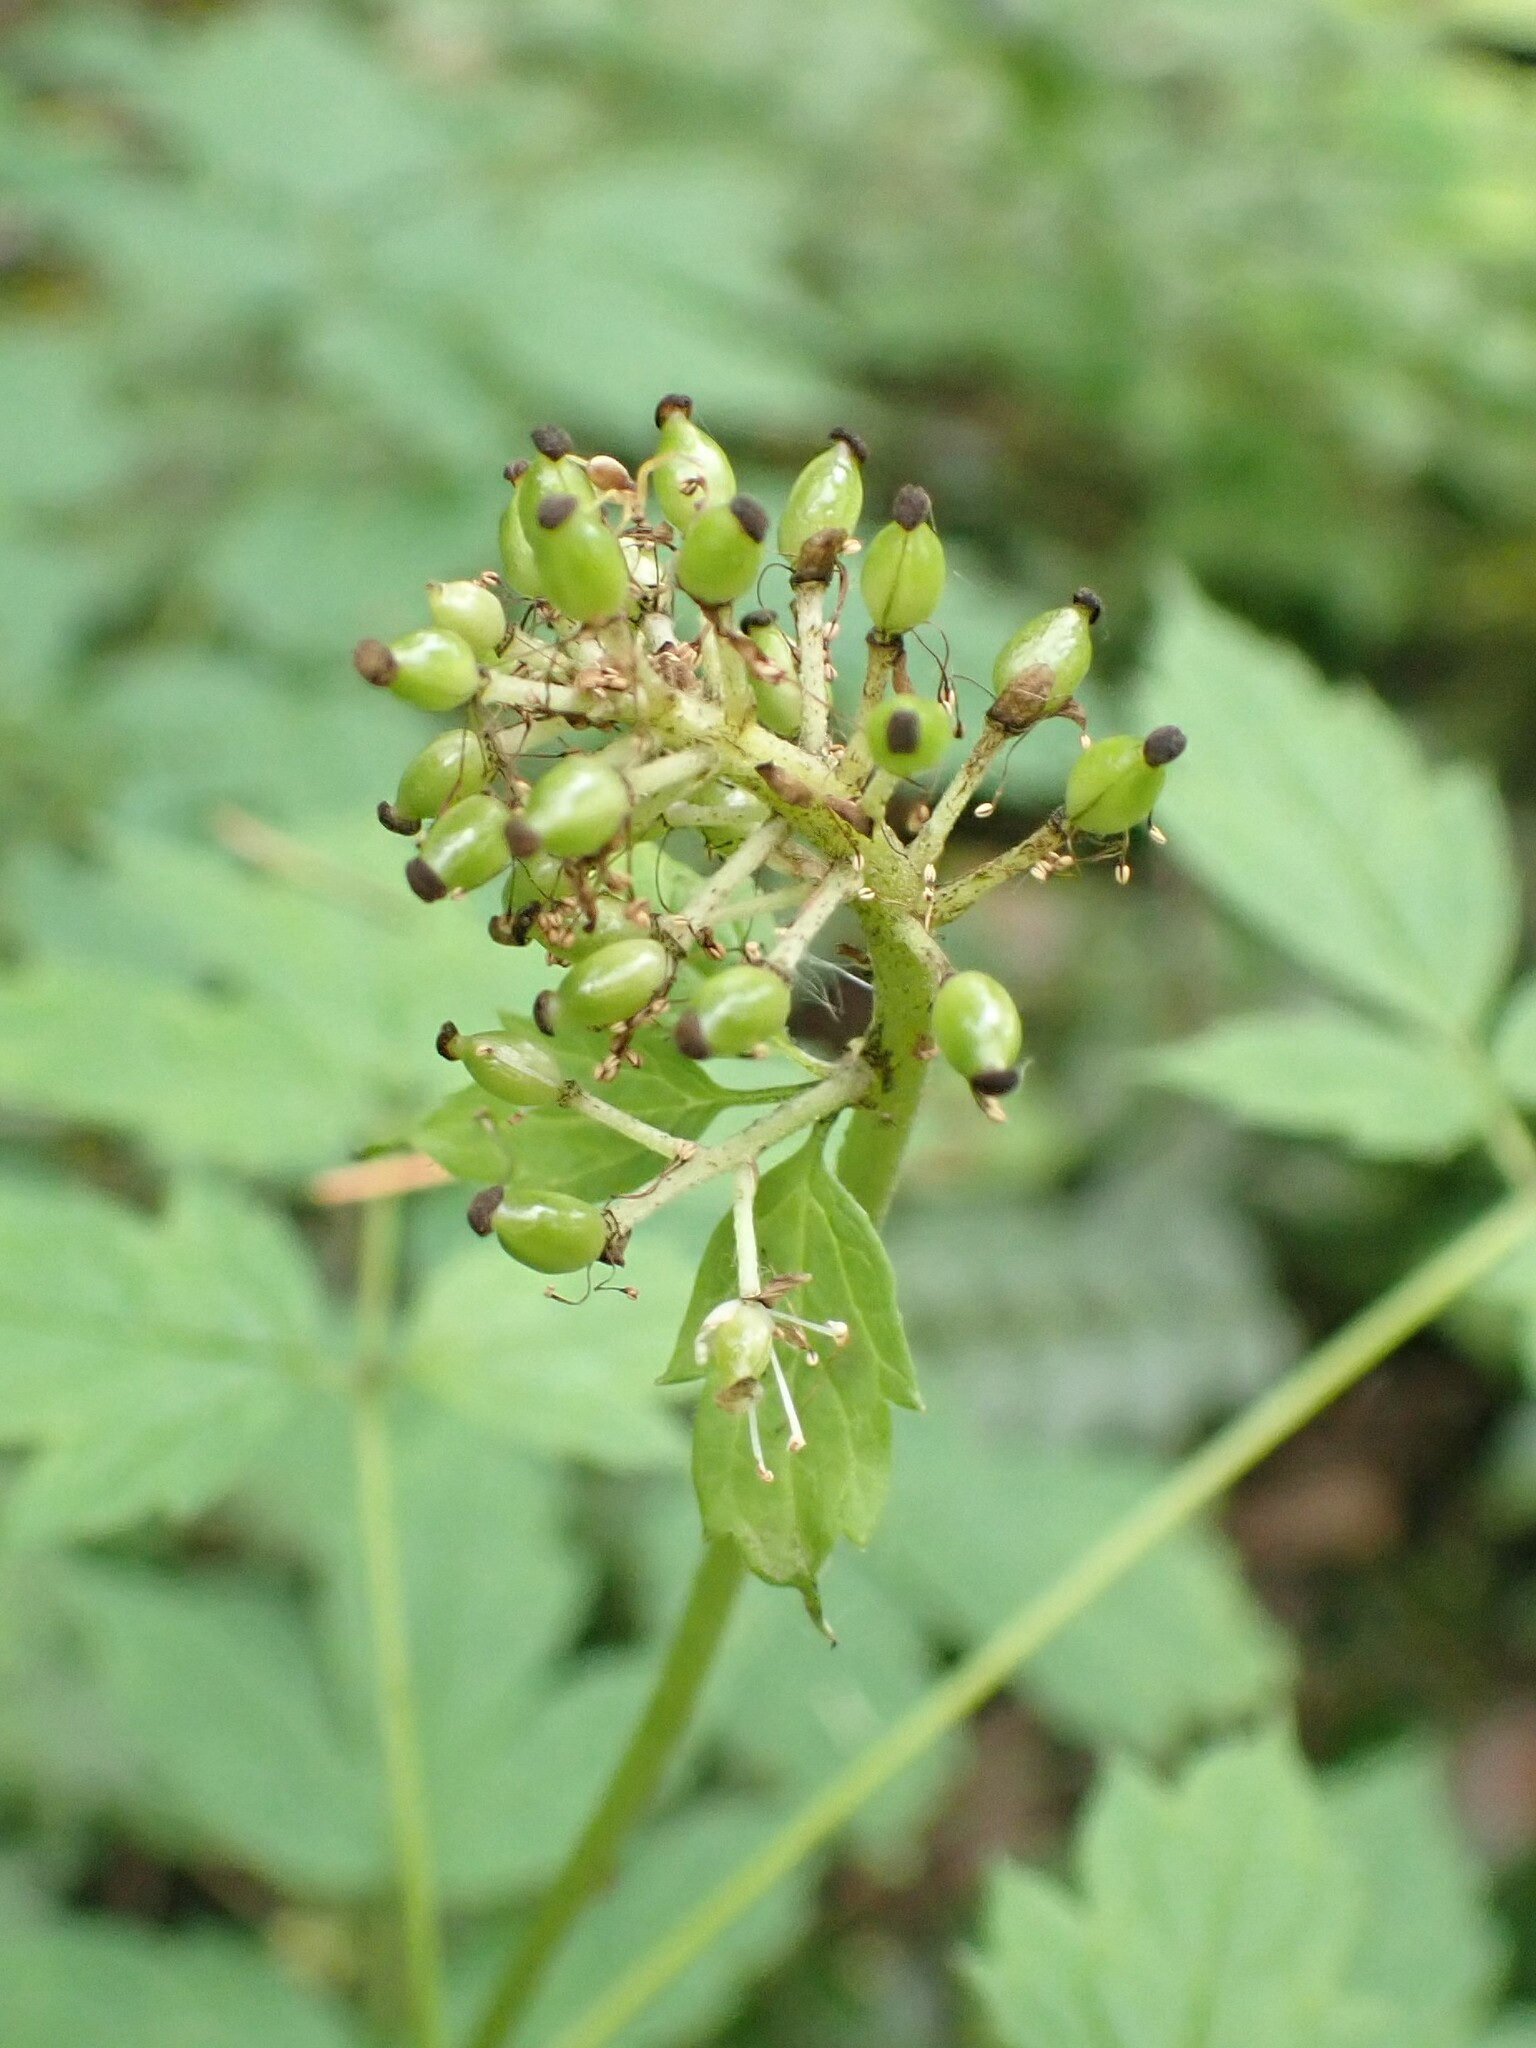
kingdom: Plantae
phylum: Tracheophyta
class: Magnoliopsida
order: Ranunculales
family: Ranunculaceae
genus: Actaea
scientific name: Actaea rubra
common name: Red baneberry
